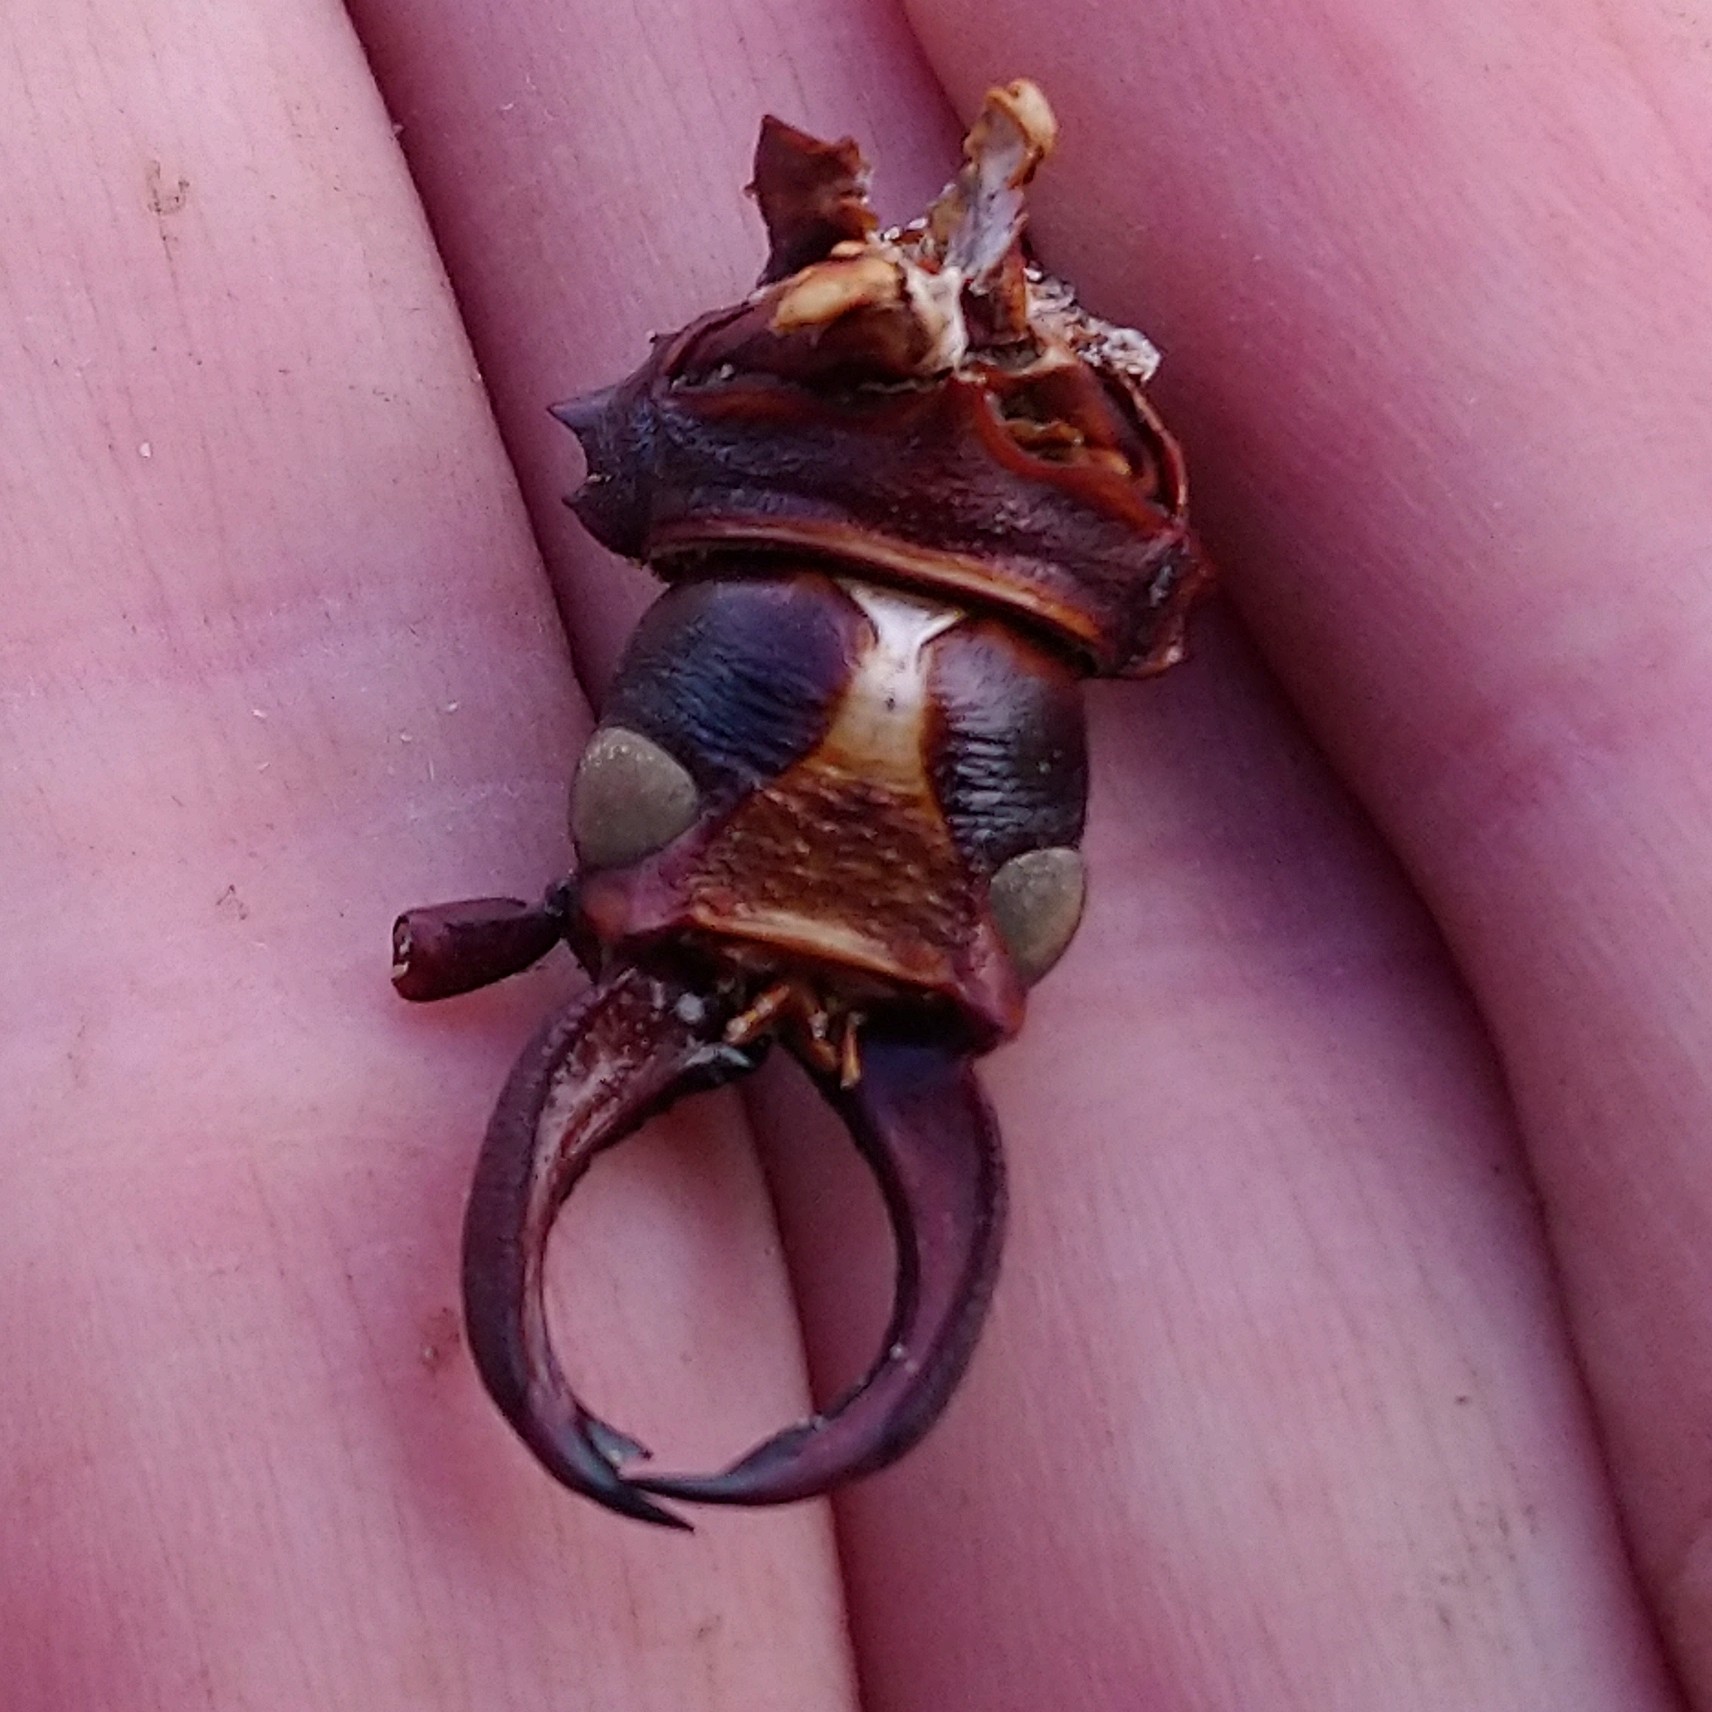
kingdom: Animalia
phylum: Arthropoda
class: Insecta
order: Coleoptera
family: Cerambycidae
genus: Cacosceles
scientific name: Cacosceles oedipus
